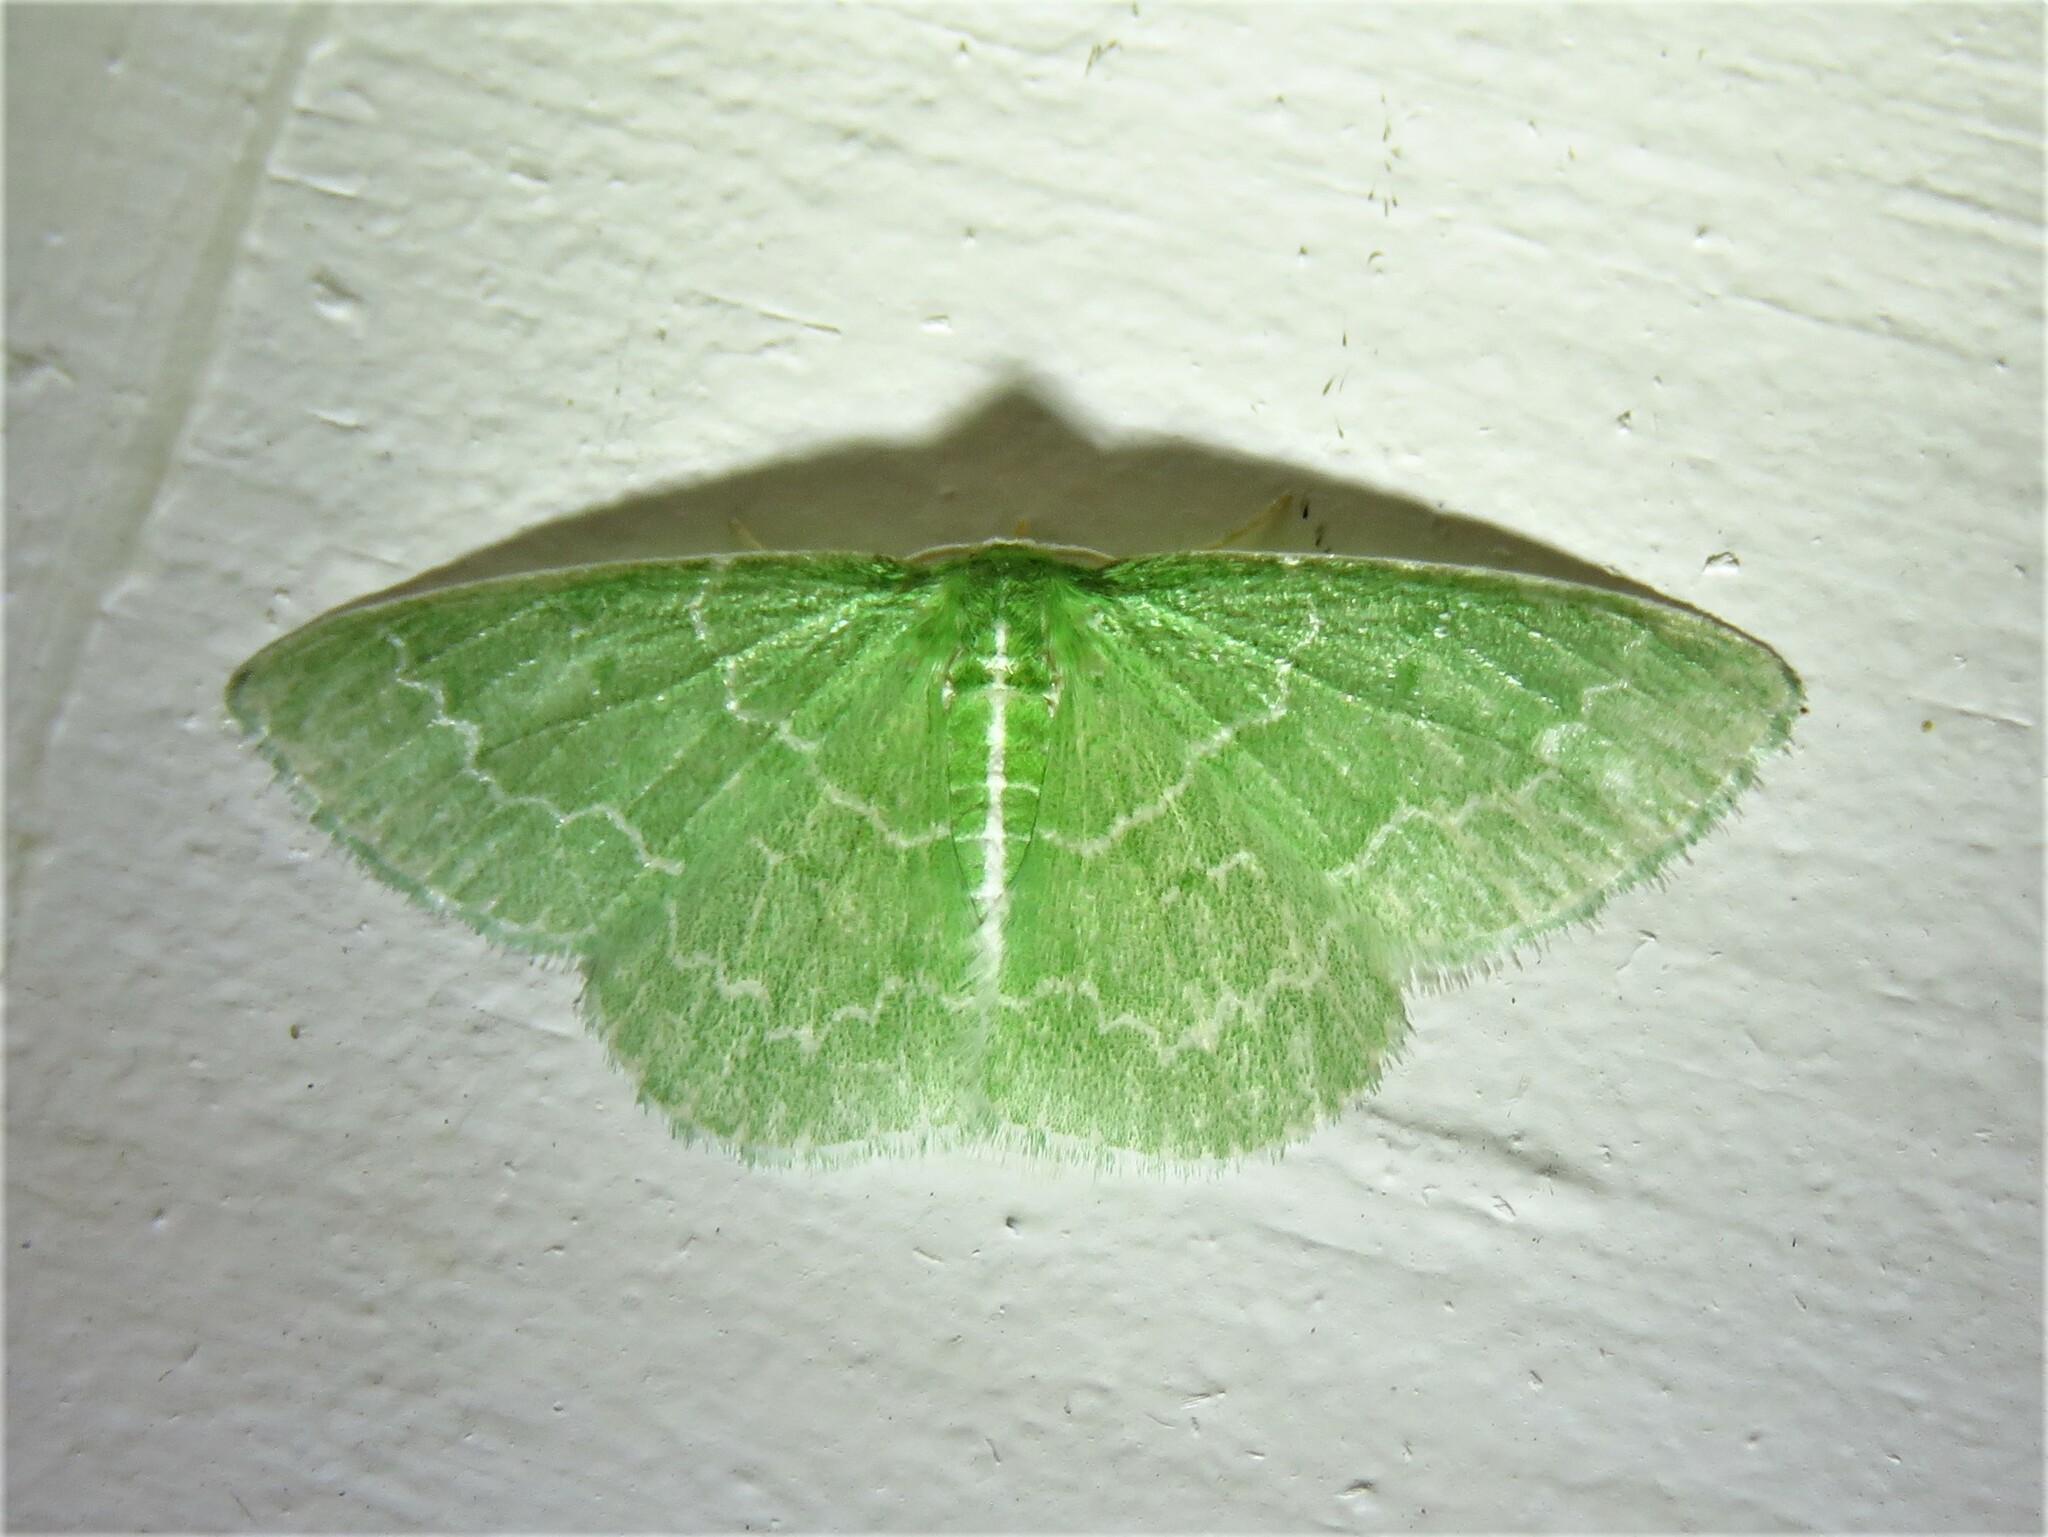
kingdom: Animalia
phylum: Arthropoda
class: Insecta
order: Lepidoptera
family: Geometridae
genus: Synchlora
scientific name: Synchlora frondaria
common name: Southern emerald
